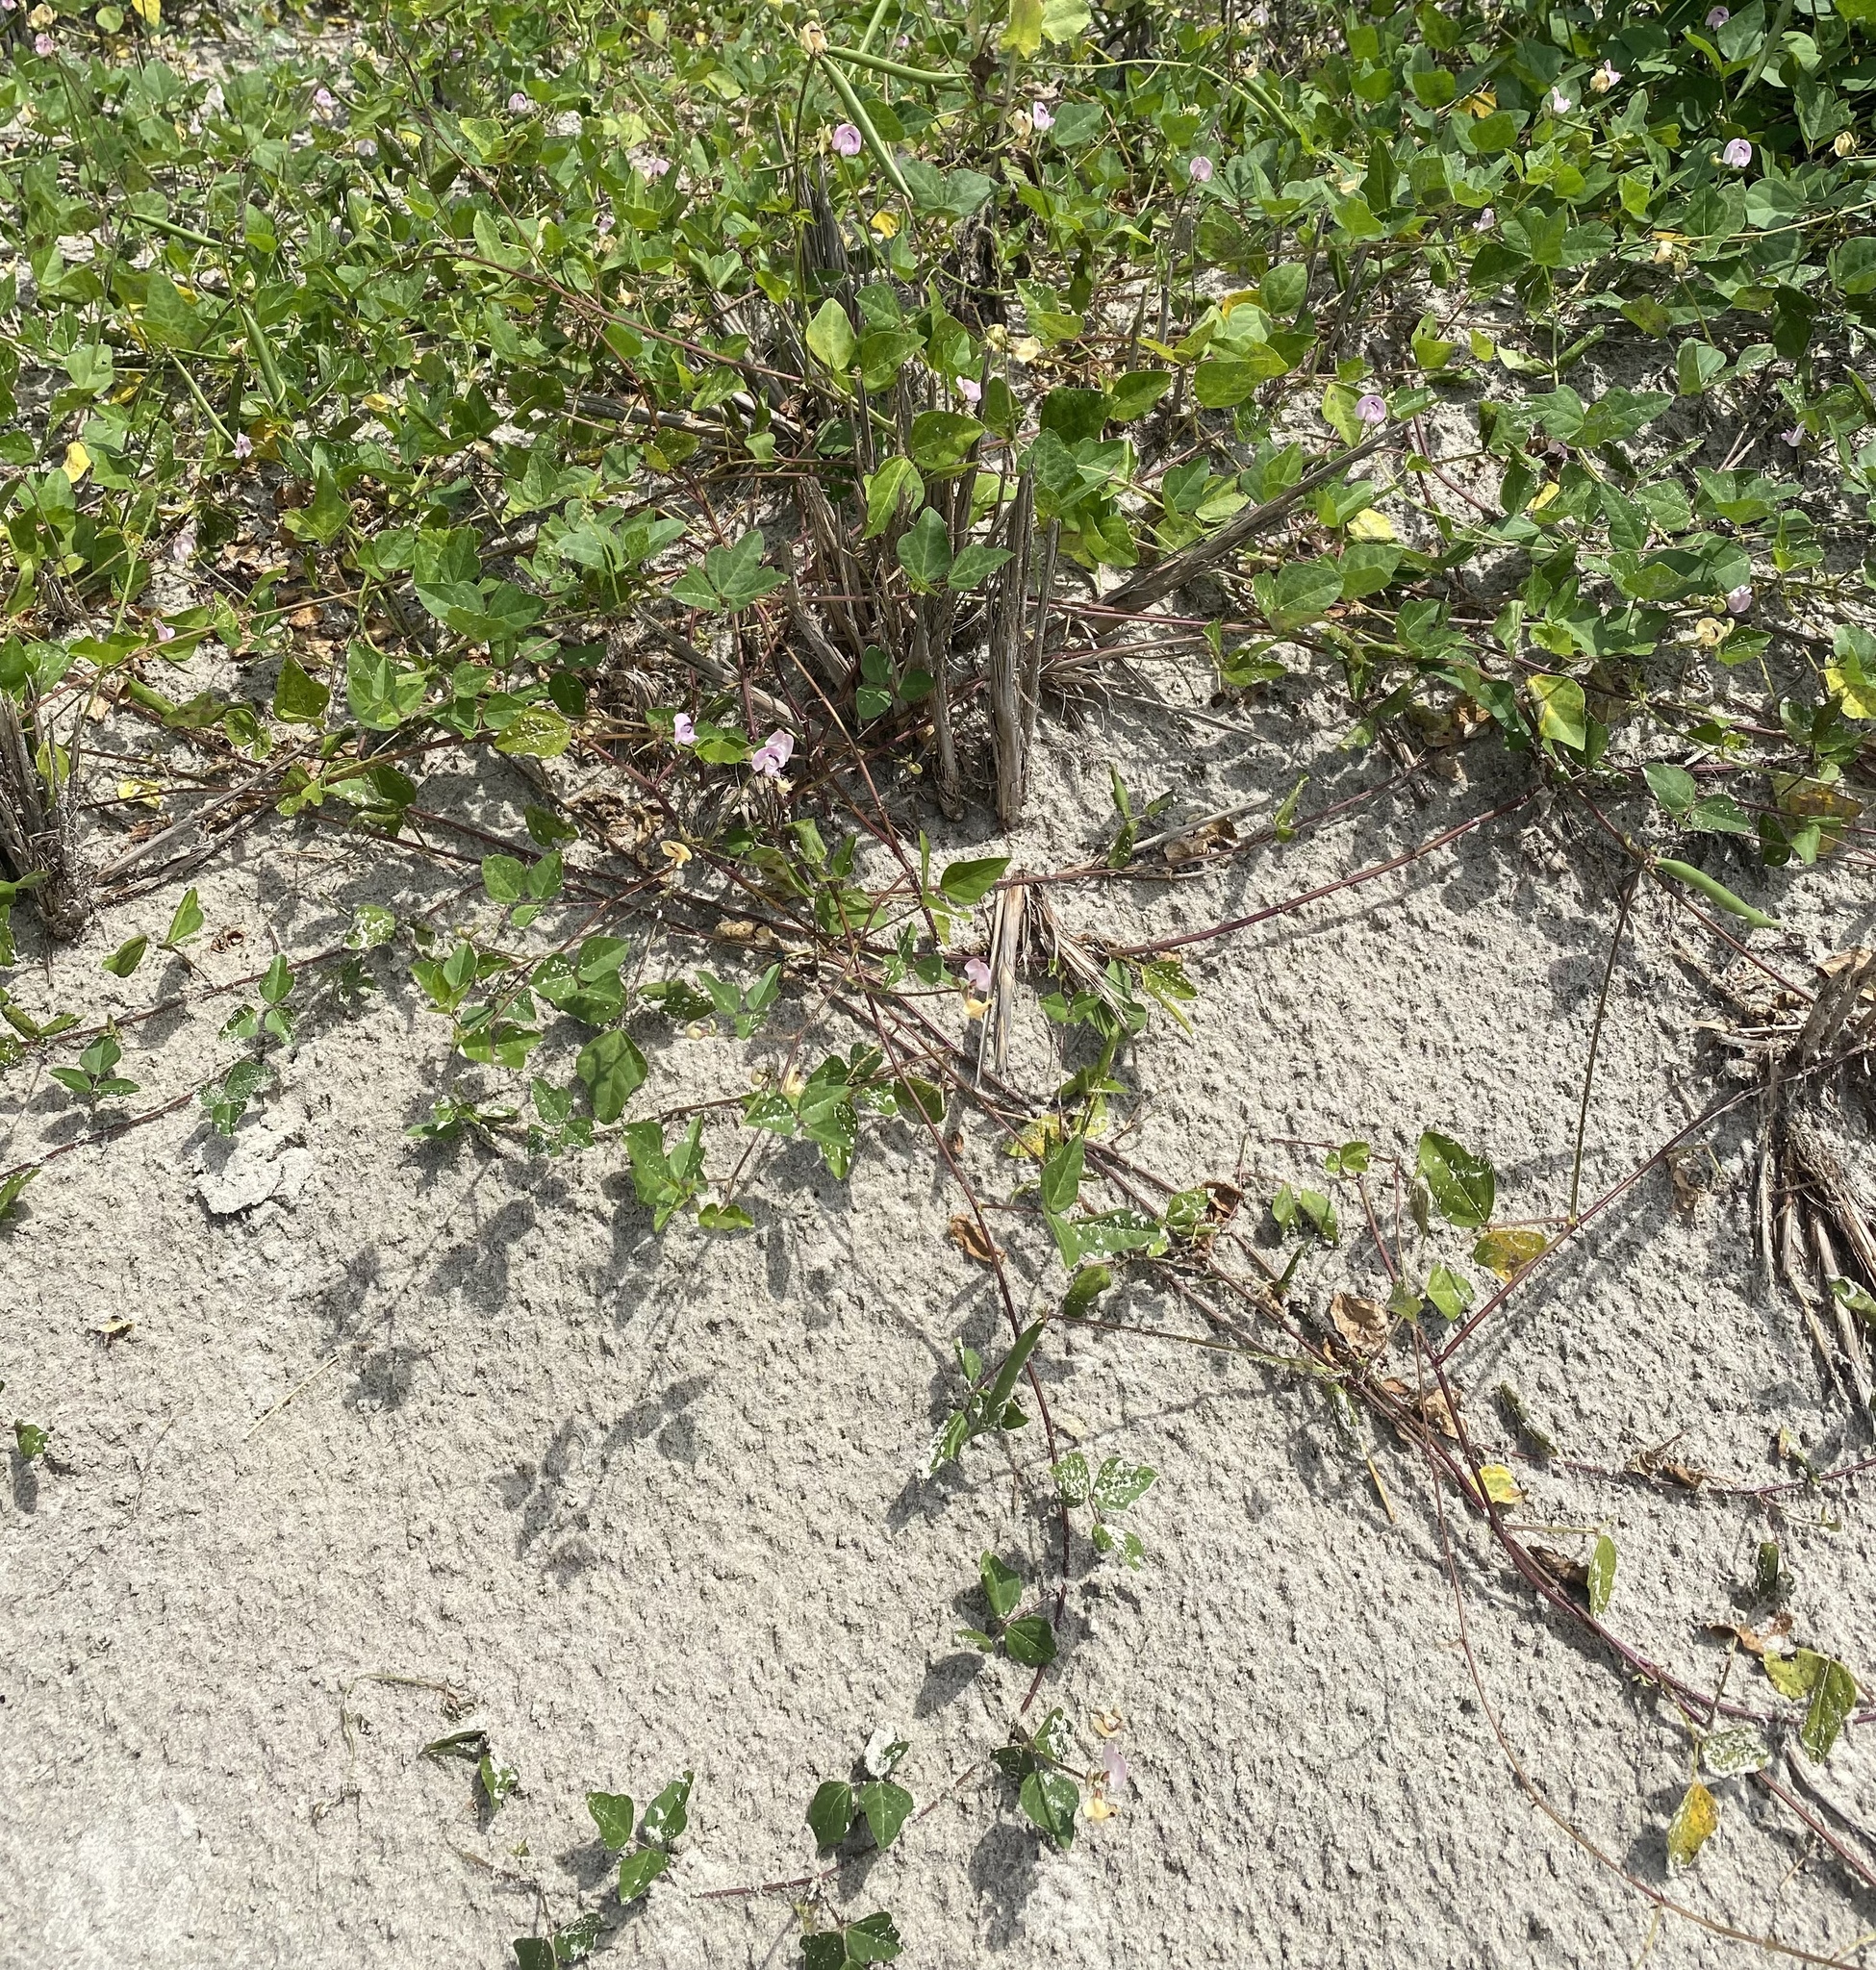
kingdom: Plantae
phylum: Tracheophyta
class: Magnoliopsida
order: Fabales
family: Fabaceae
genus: Strophostyles
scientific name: Strophostyles helvola
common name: Trailing wild bean
